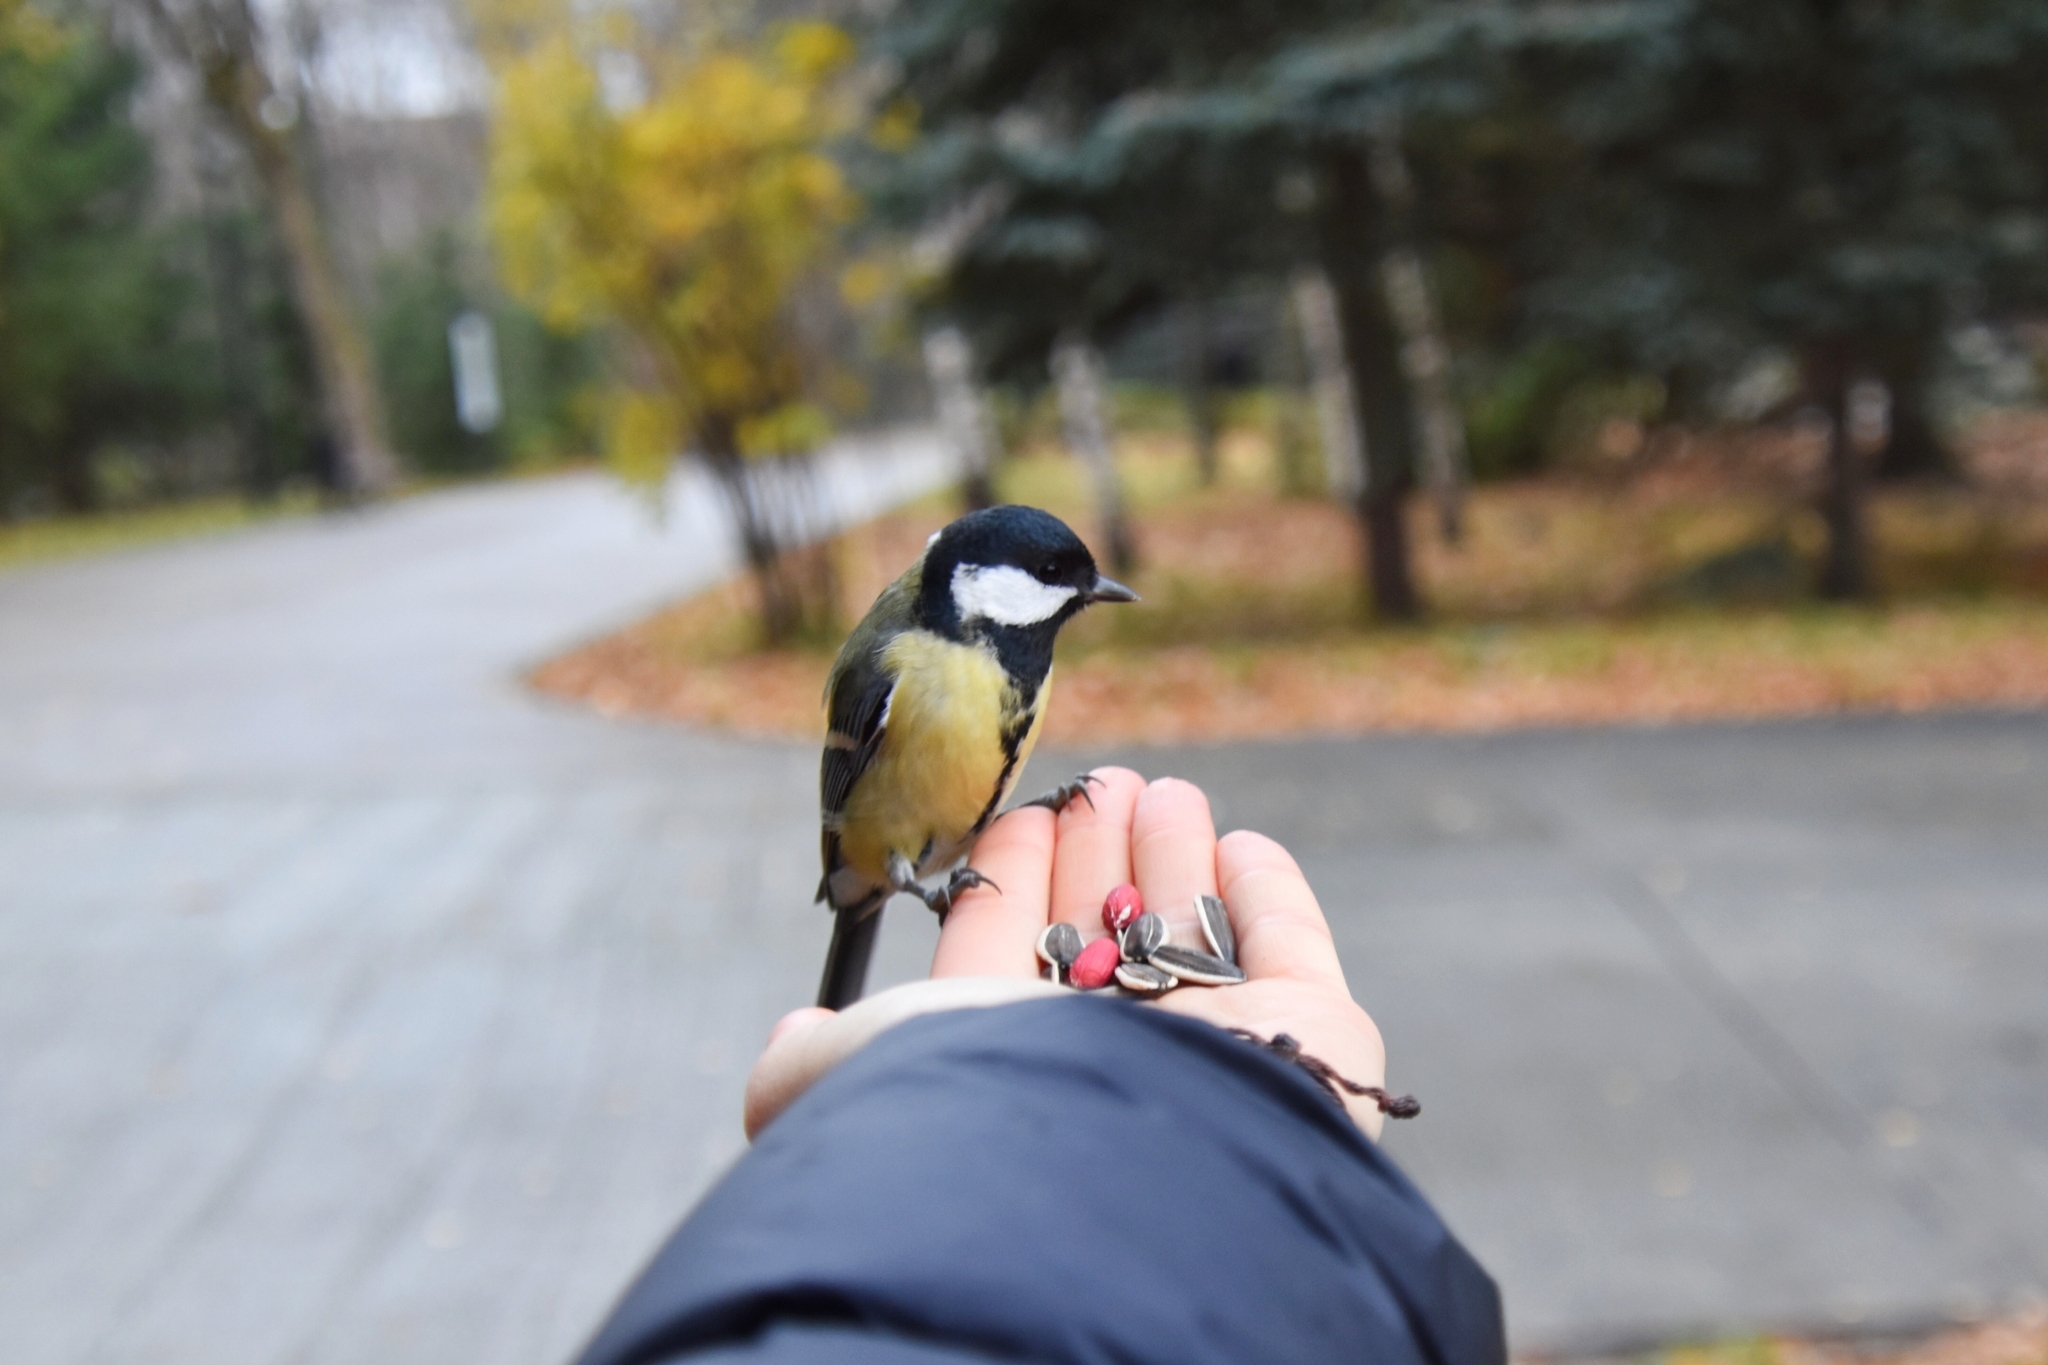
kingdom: Animalia
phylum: Chordata
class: Aves
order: Passeriformes
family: Paridae
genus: Parus
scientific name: Parus major
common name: Great tit
